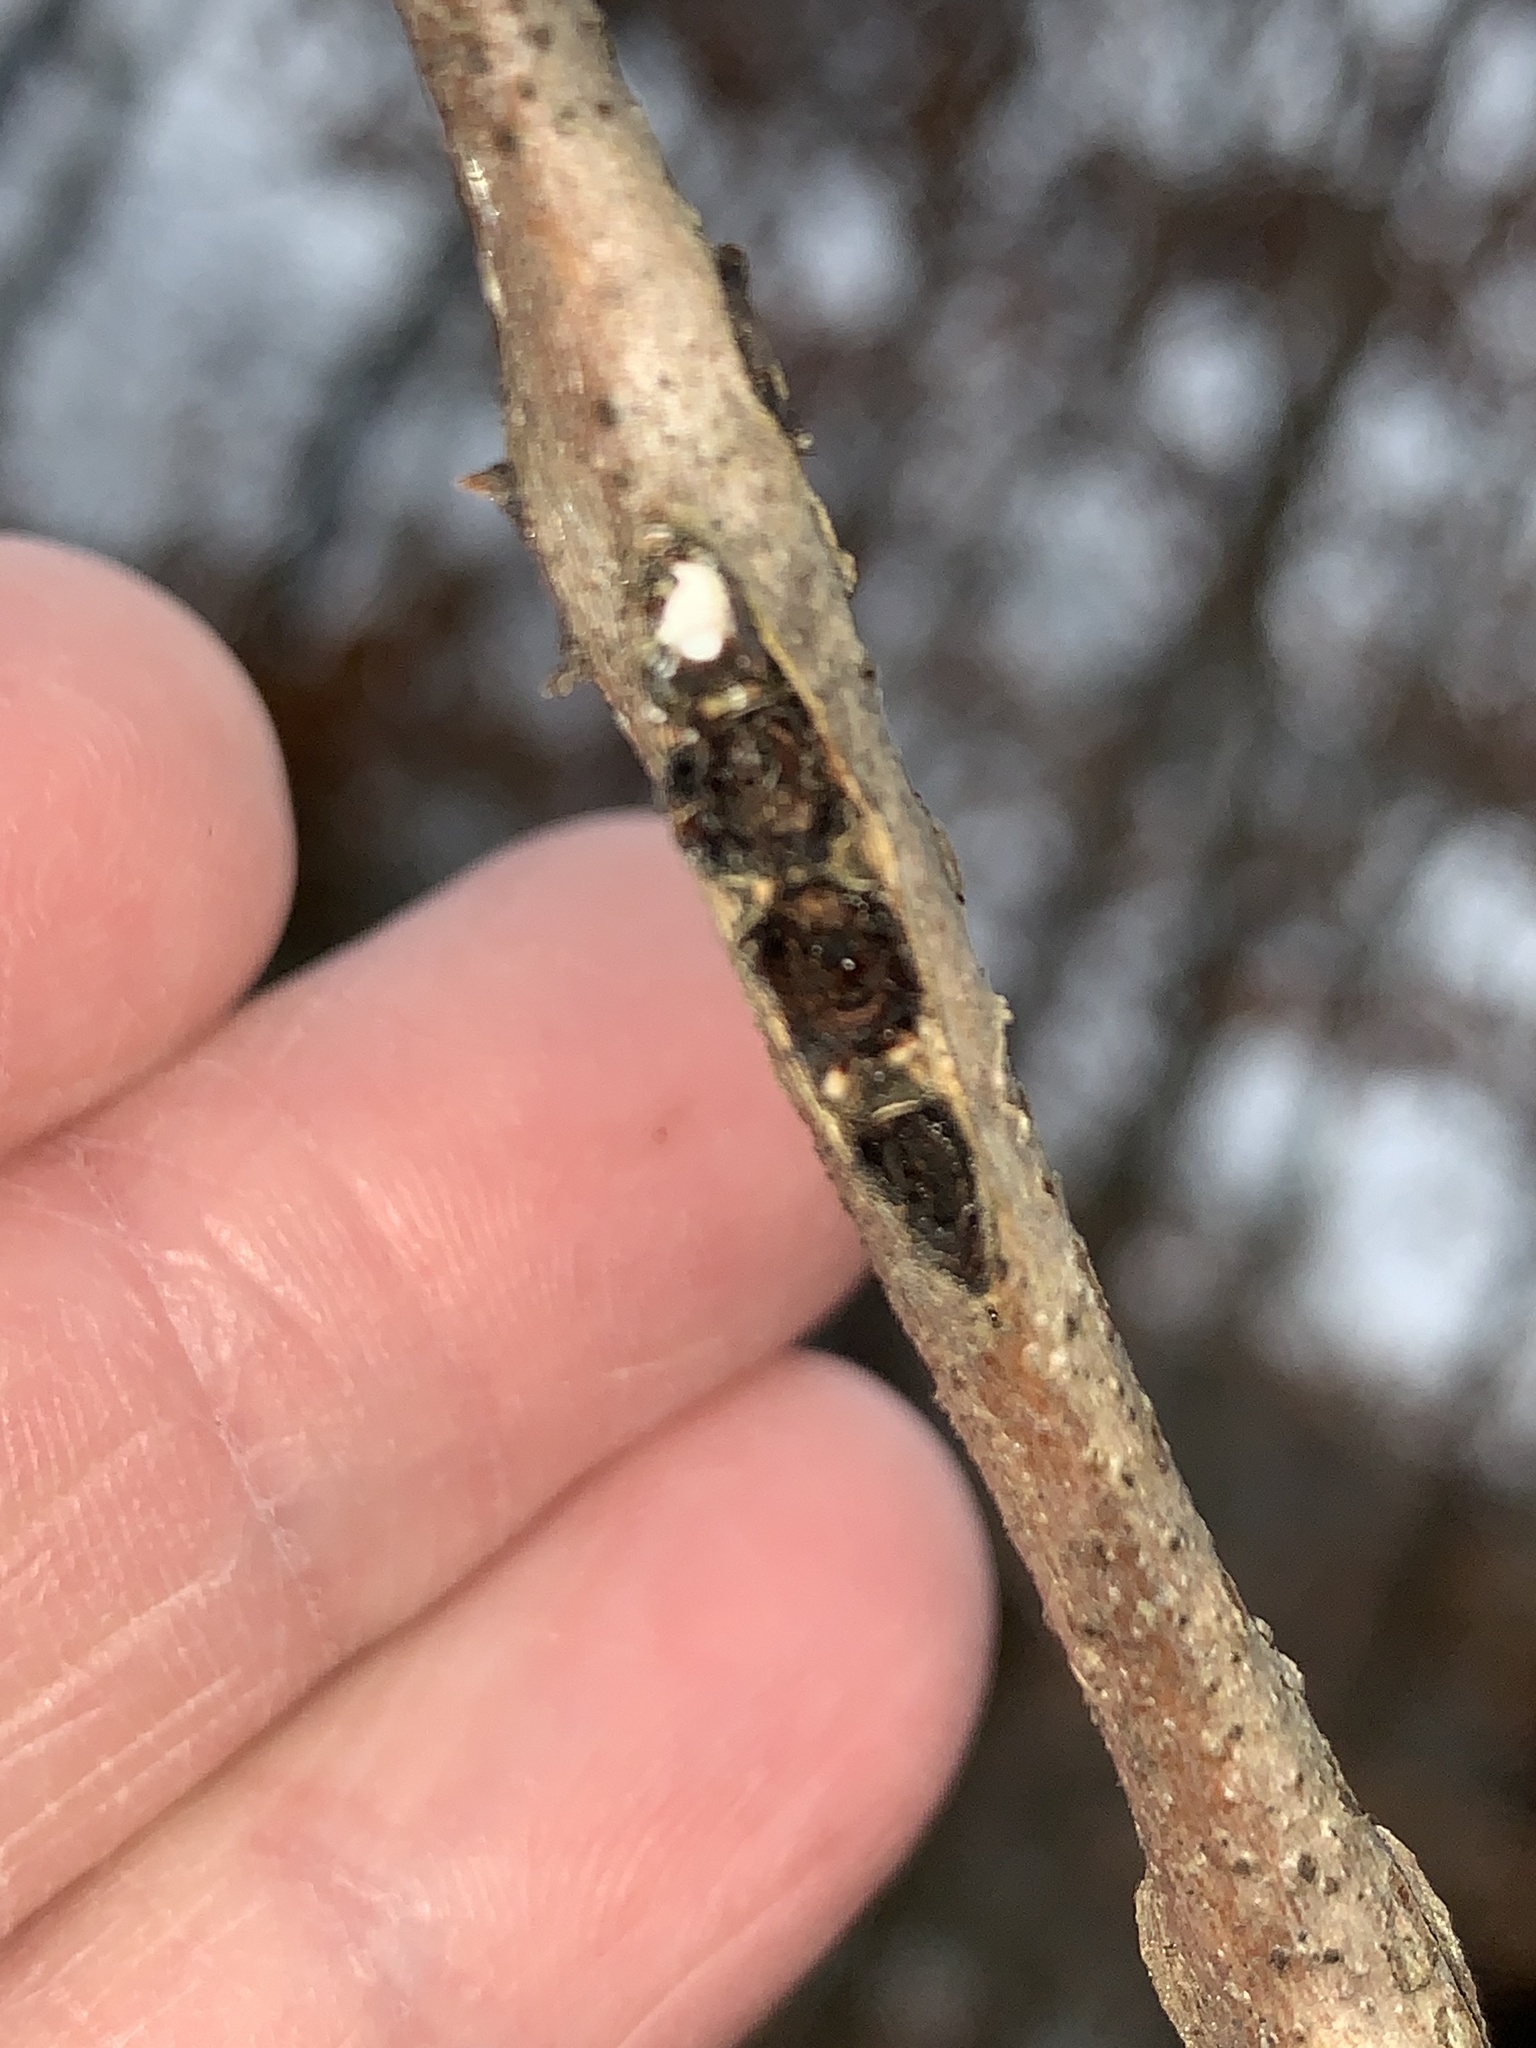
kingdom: Animalia
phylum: Arthropoda
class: Insecta
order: Hymenoptera
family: Cynipidae
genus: Callirhytis
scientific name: Callirhytis
